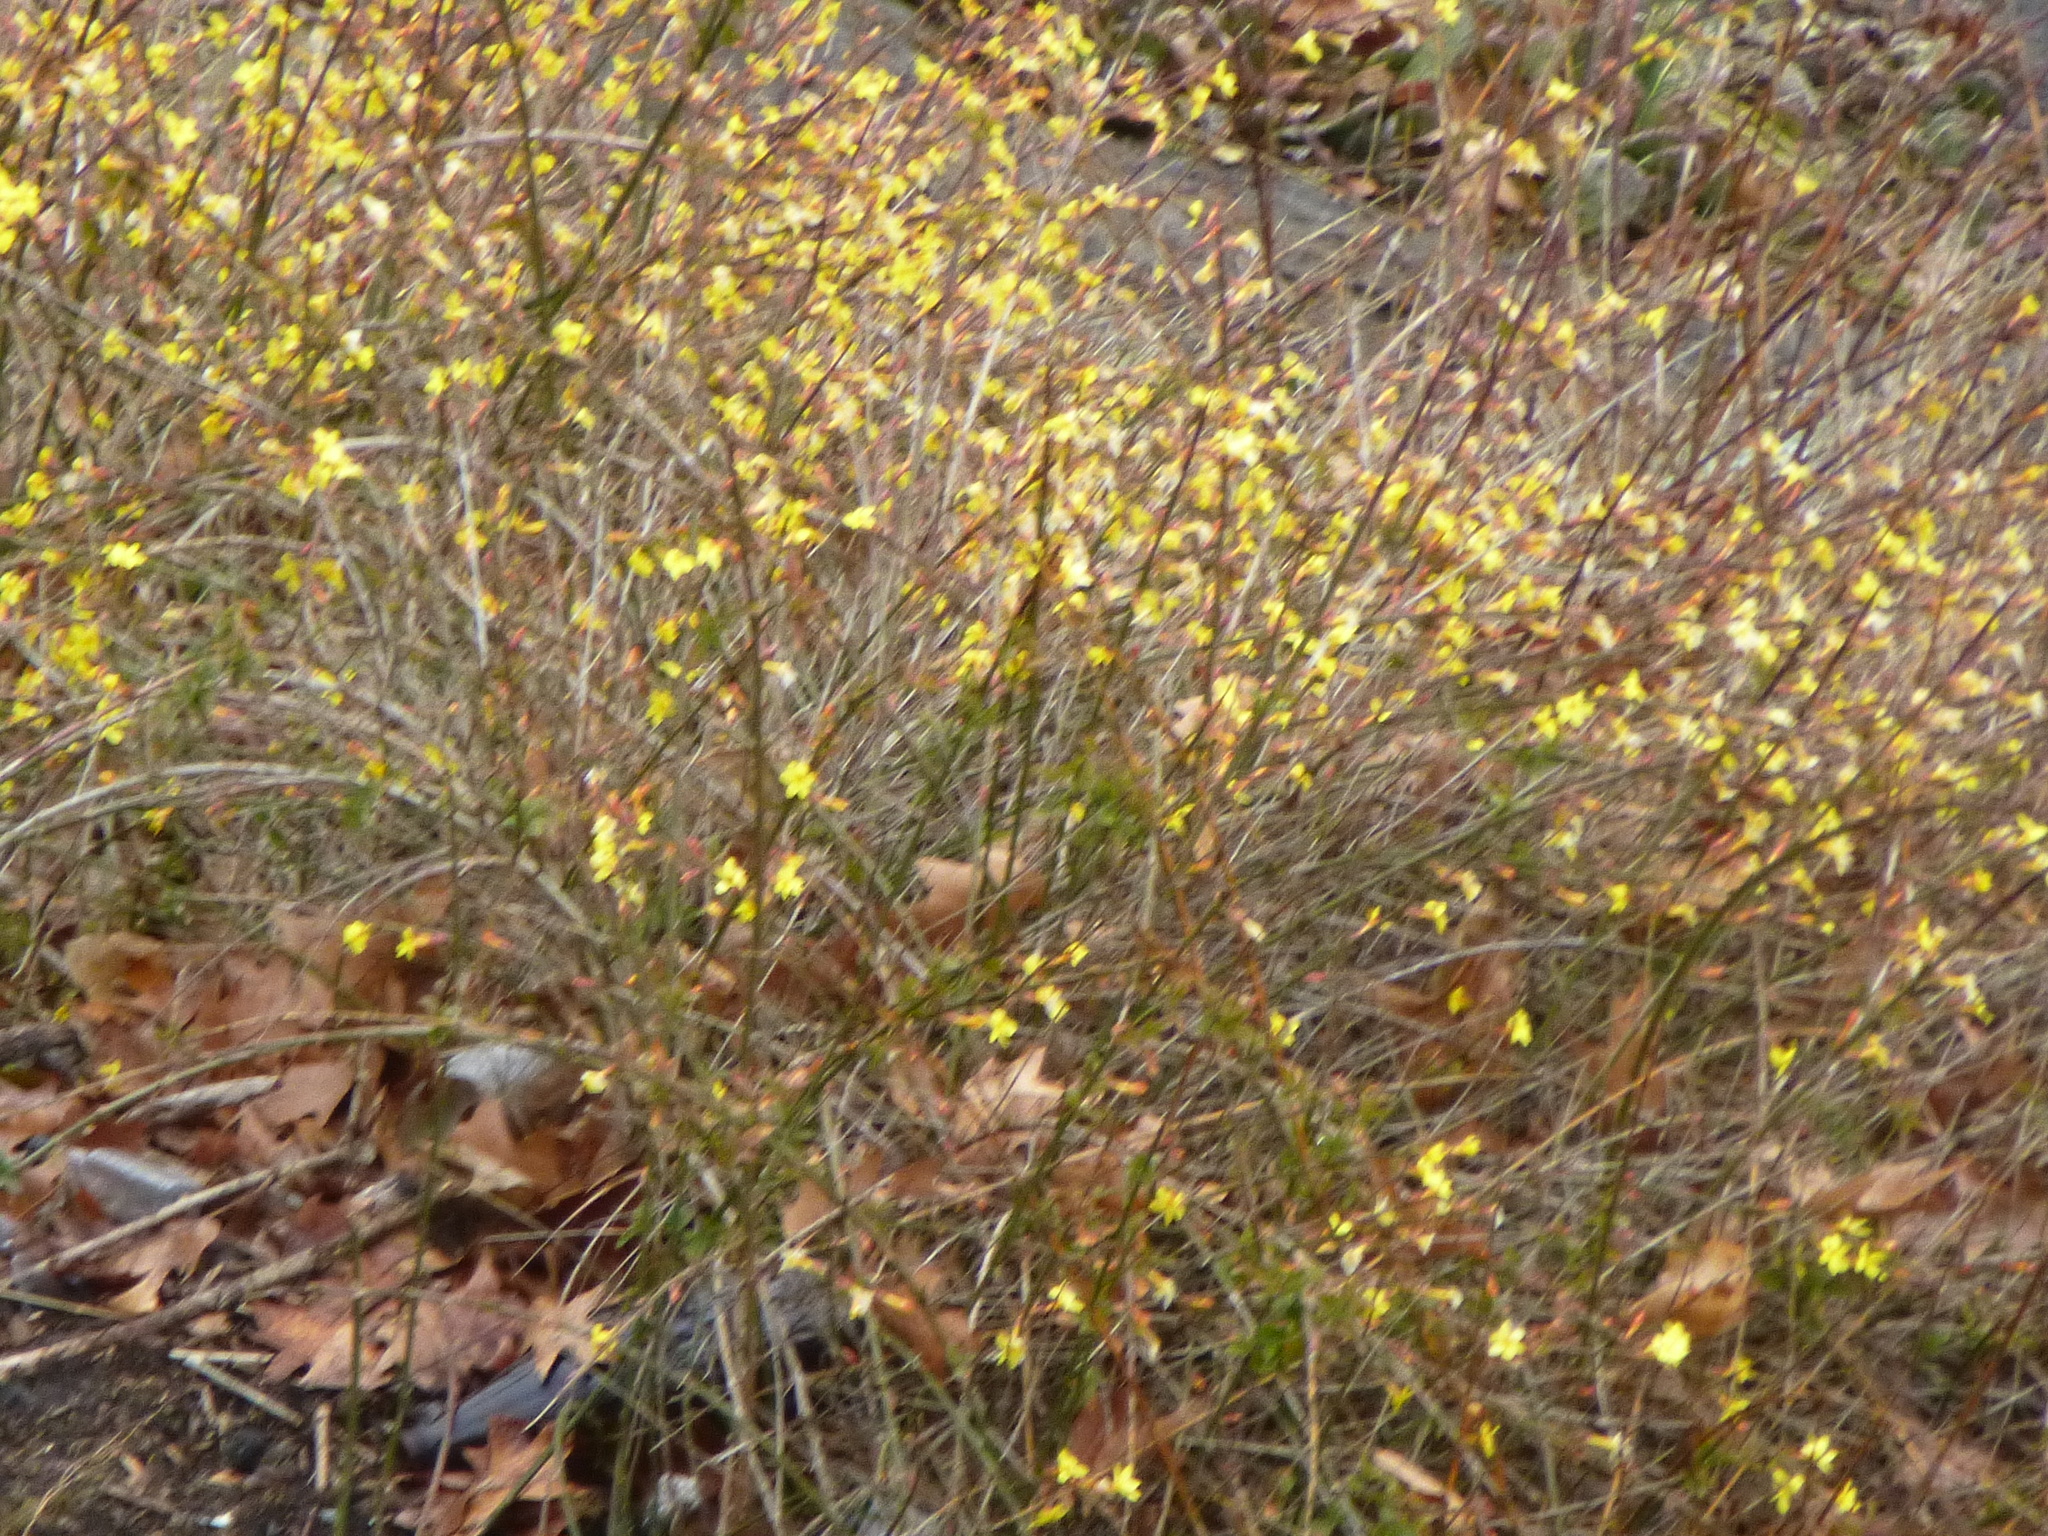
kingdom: Plantae
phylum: Tracheophyta
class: Magnoliopsida
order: Lamiales
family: Oleaceae
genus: Jasminum
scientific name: Jasminum nudiflorum
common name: Winter jasmine
